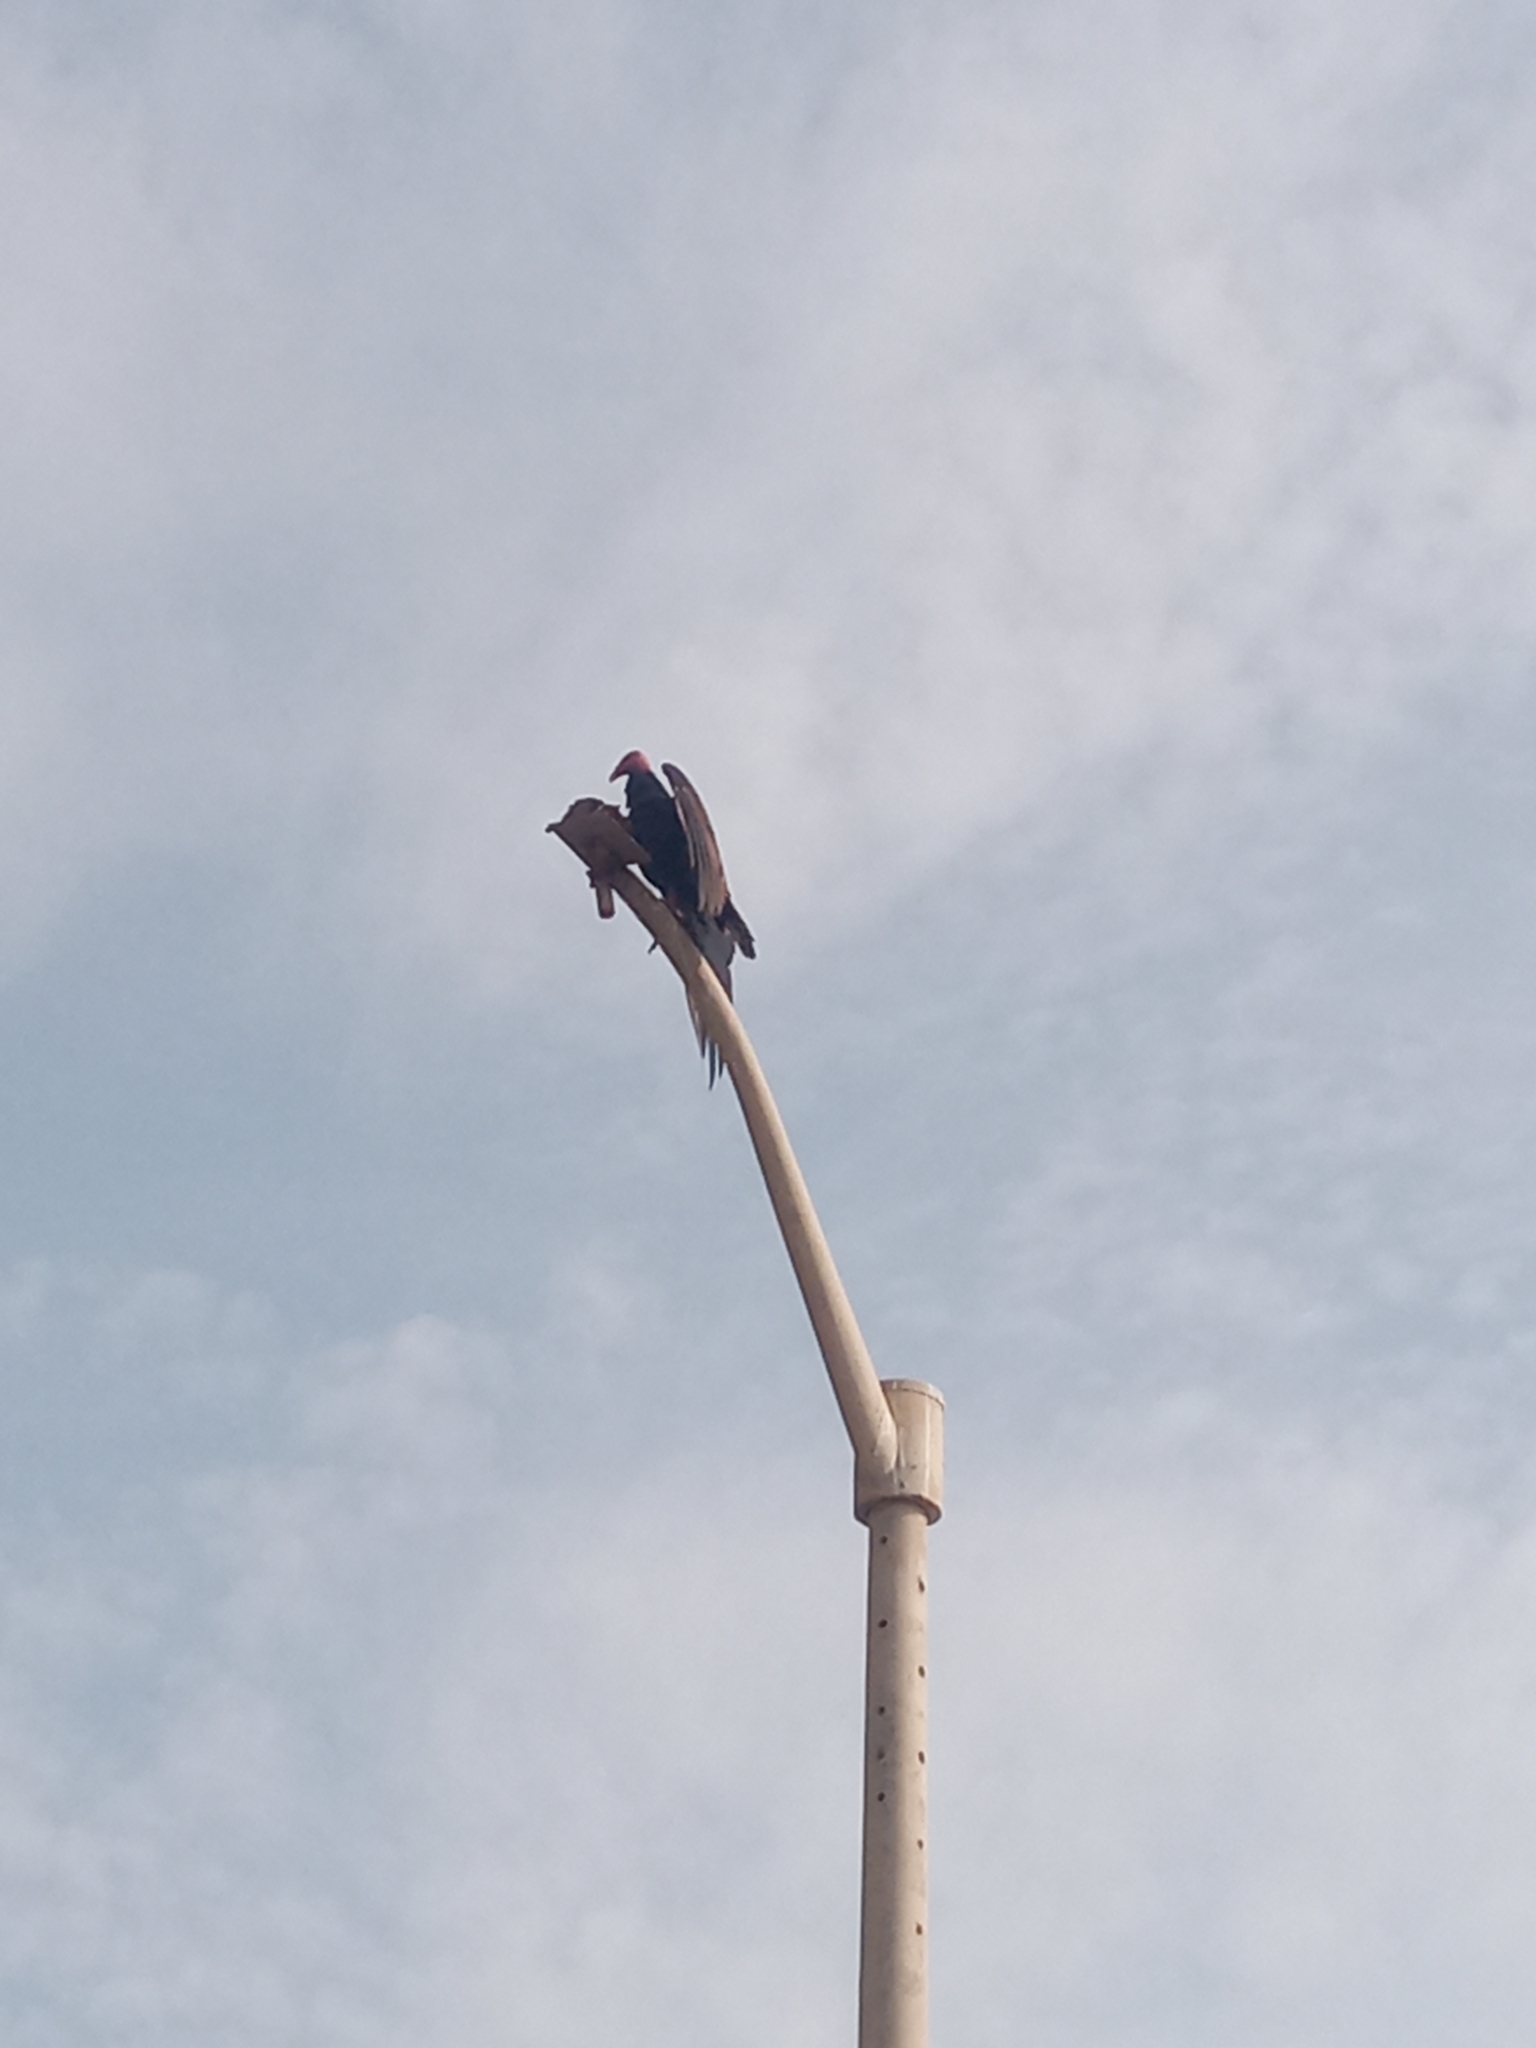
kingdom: Animalia
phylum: Chordata
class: Aves
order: Accipitriformes
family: Cathartidae
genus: Cathartes
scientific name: Cathartes aura
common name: Turkey vulture
